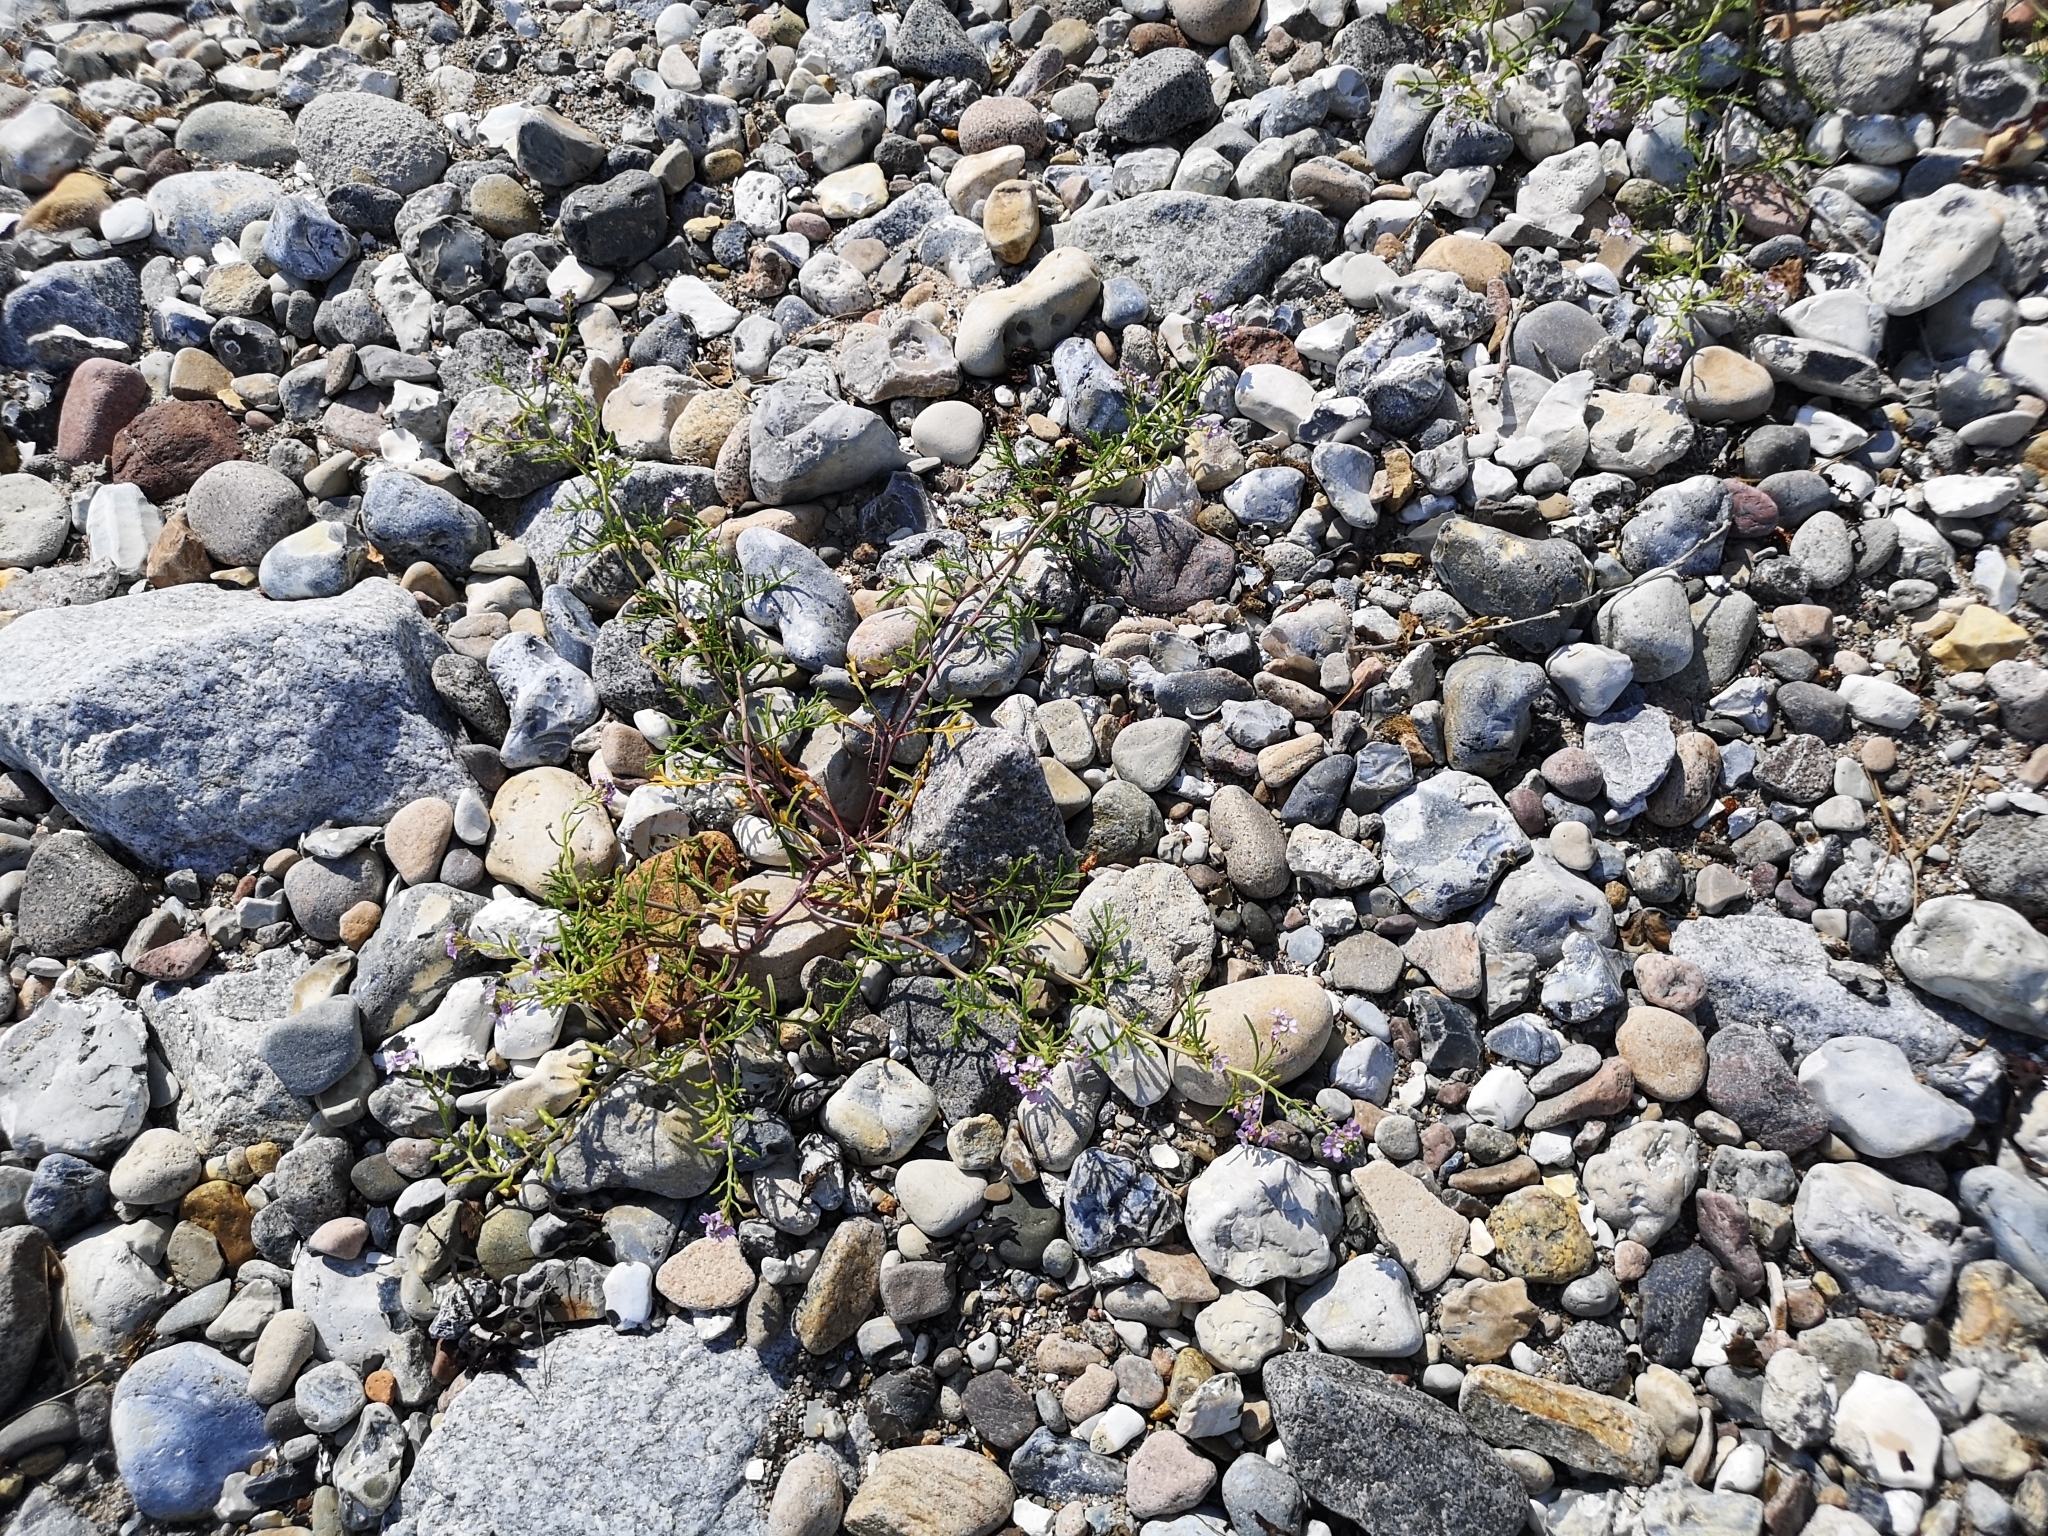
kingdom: Plantae
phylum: Tracheophyta
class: Magnoliopsida
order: Brassicales
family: Brassicaceae
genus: Cakile
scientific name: Cakile maritima
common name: Sea rocket
